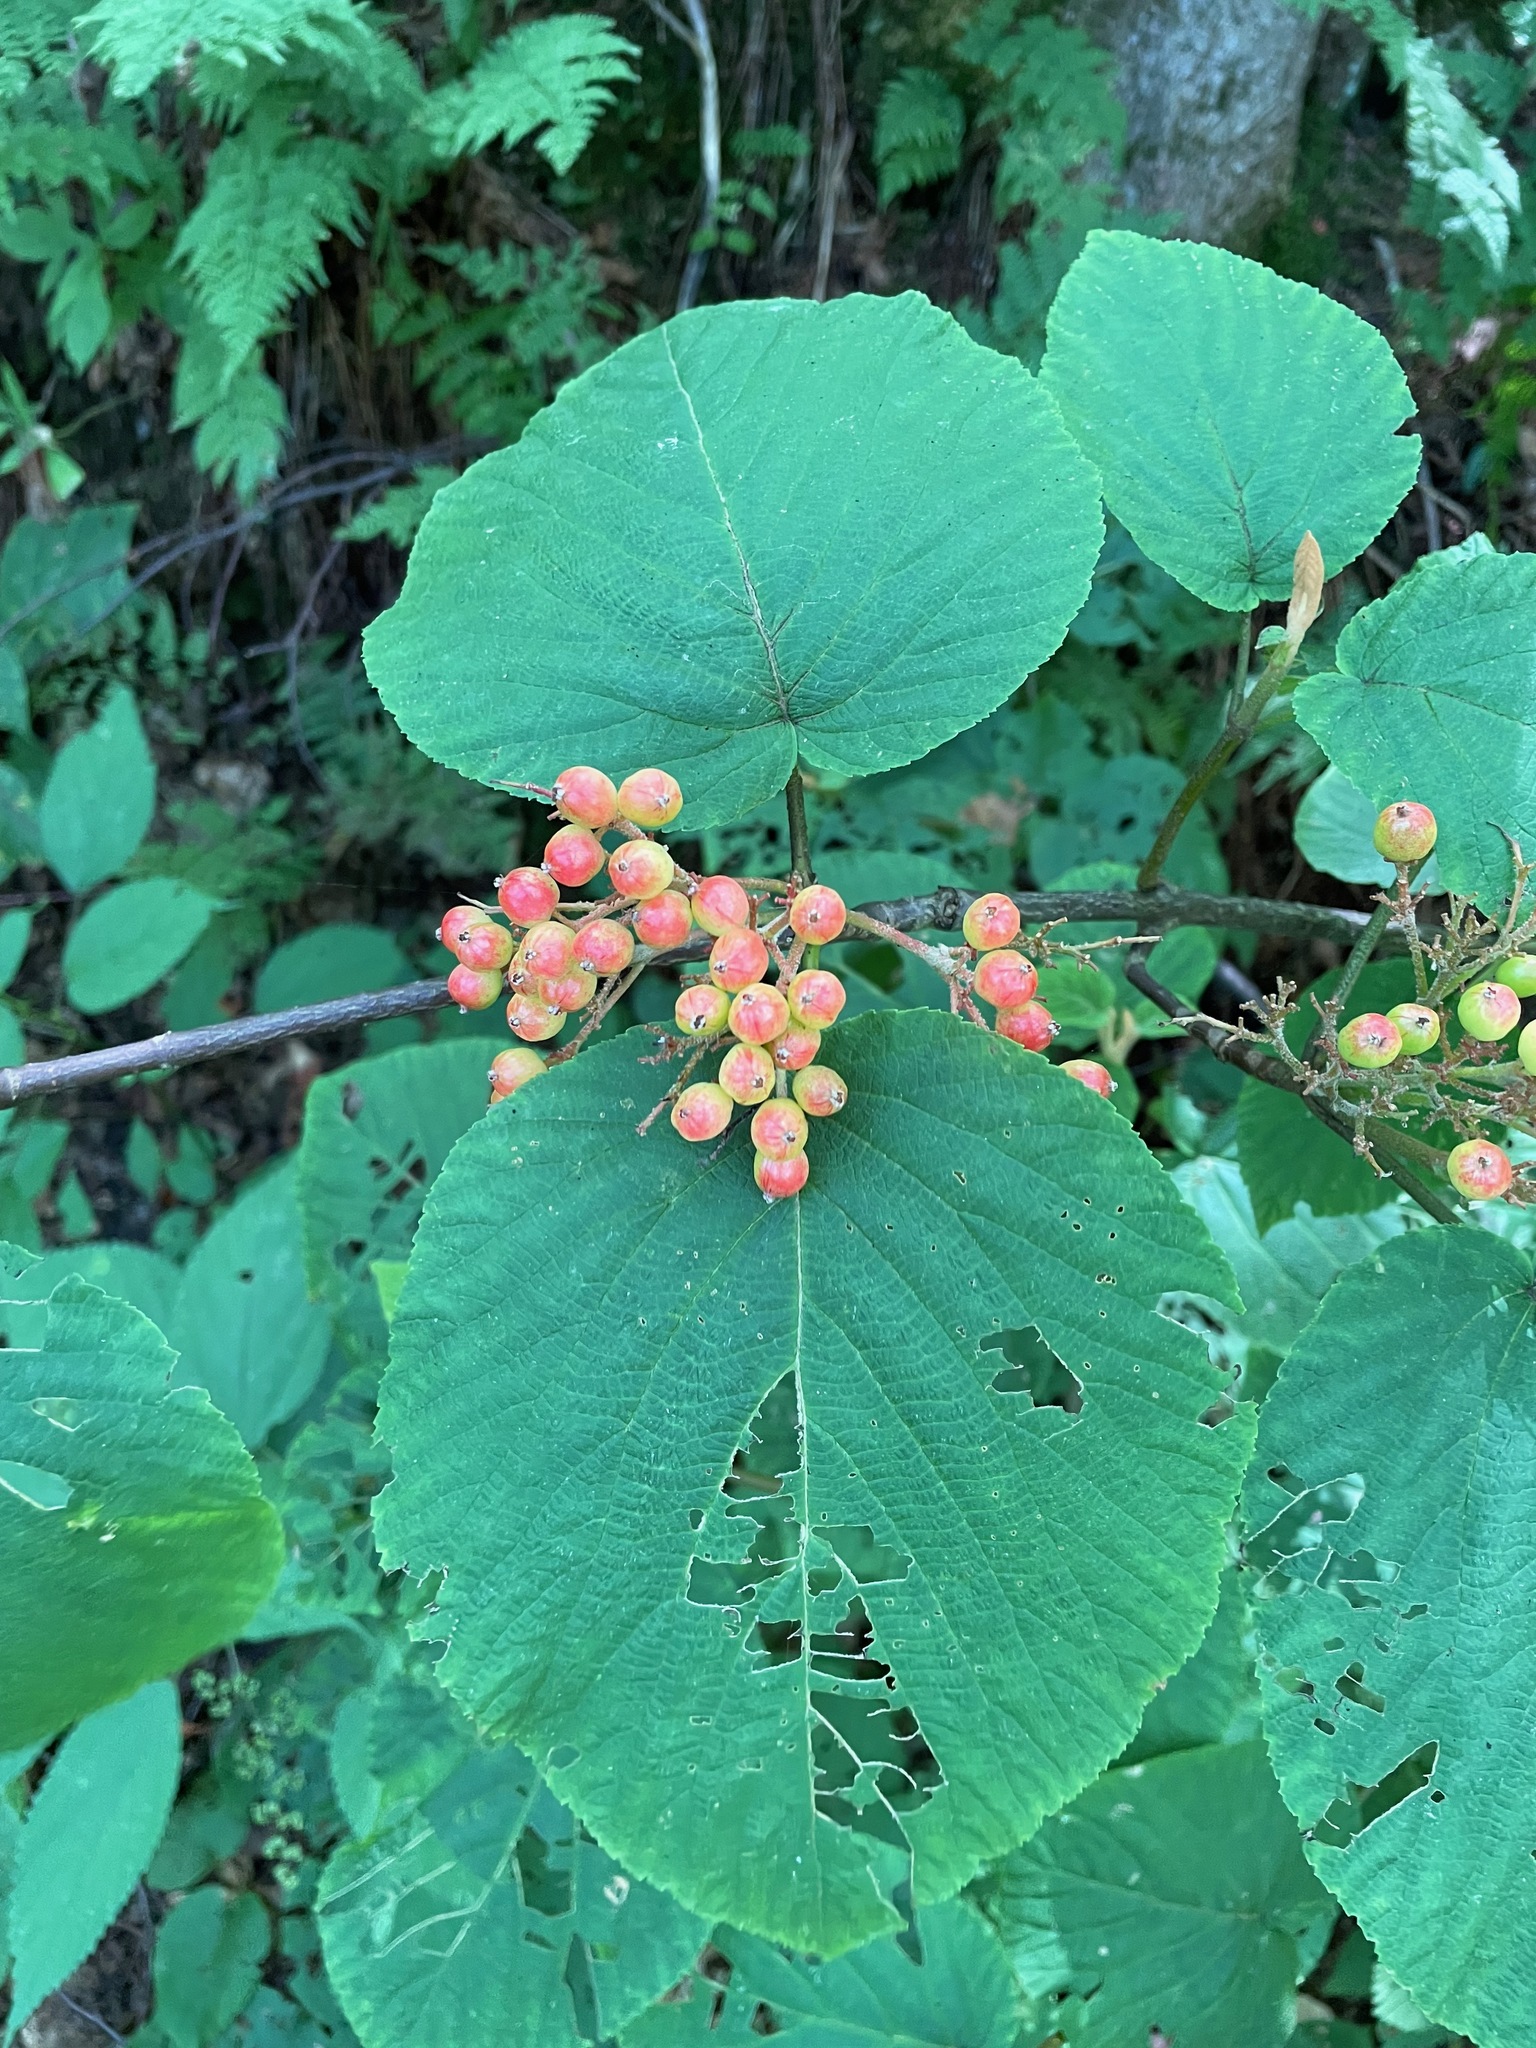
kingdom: Plantae
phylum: Tracheophyta
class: Magnoliopsida
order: Dipsacales
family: Viburnaceae
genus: Viburnum
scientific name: Viburnum lantanoides
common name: Hobblebush
